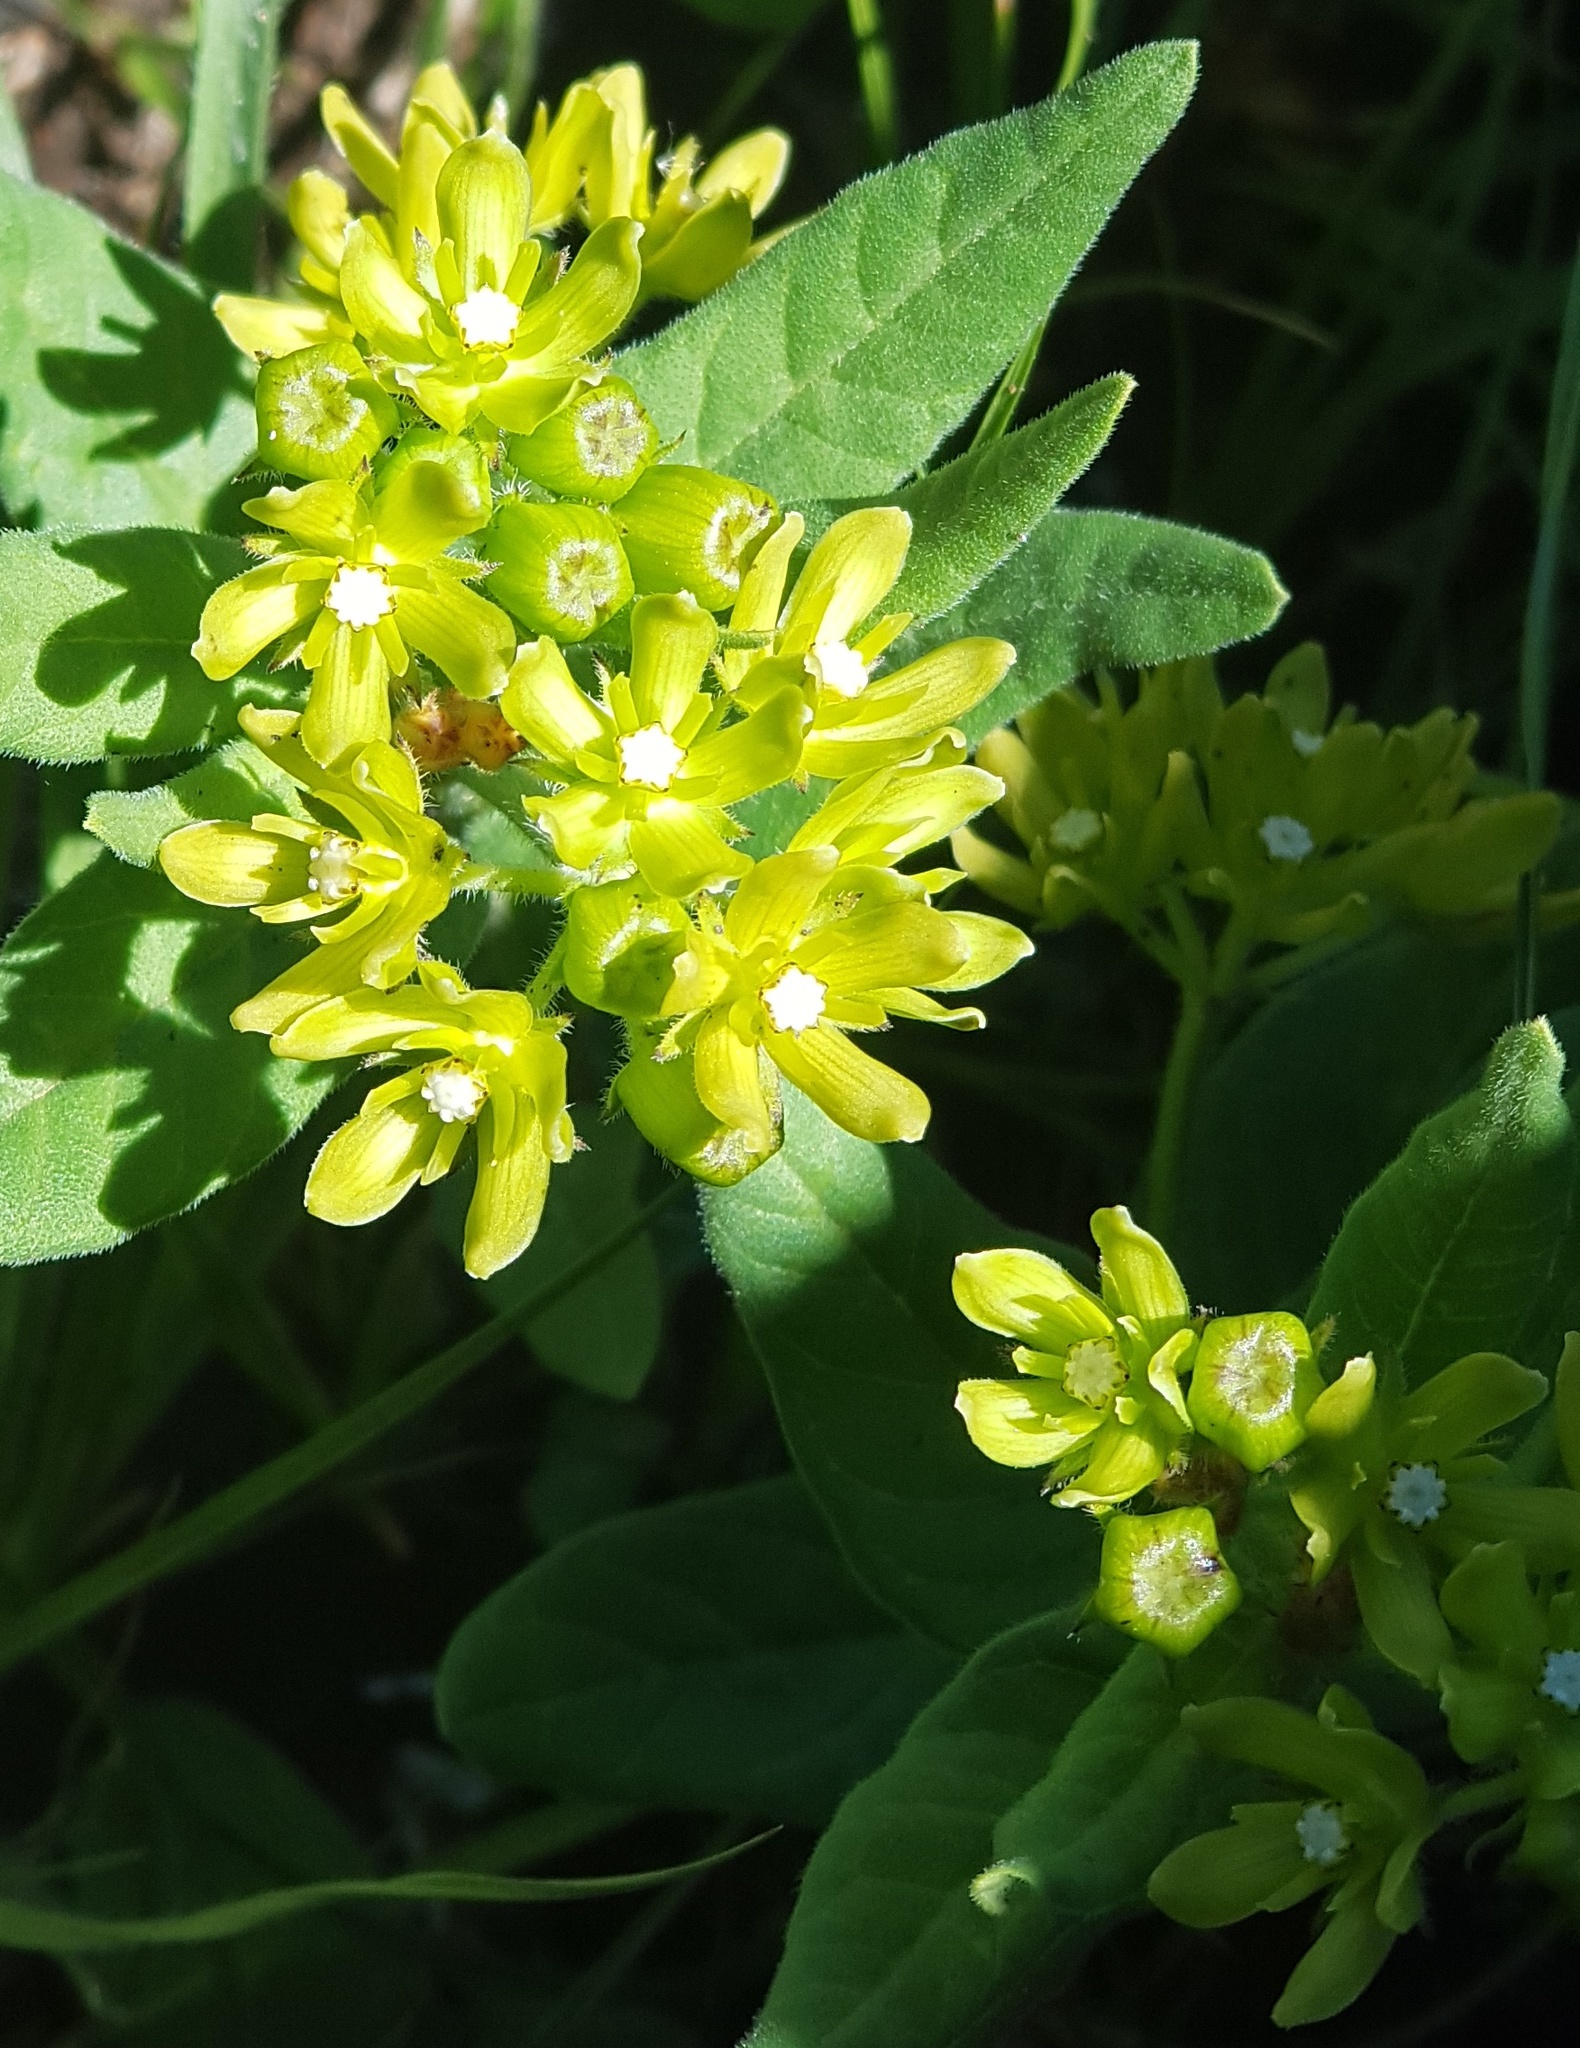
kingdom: Plantae
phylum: Tracheophyta
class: Magnoliopsida
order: Gentianales
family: Apocynaceae
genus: Schizoglossum
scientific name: Schizoglossum flavum
